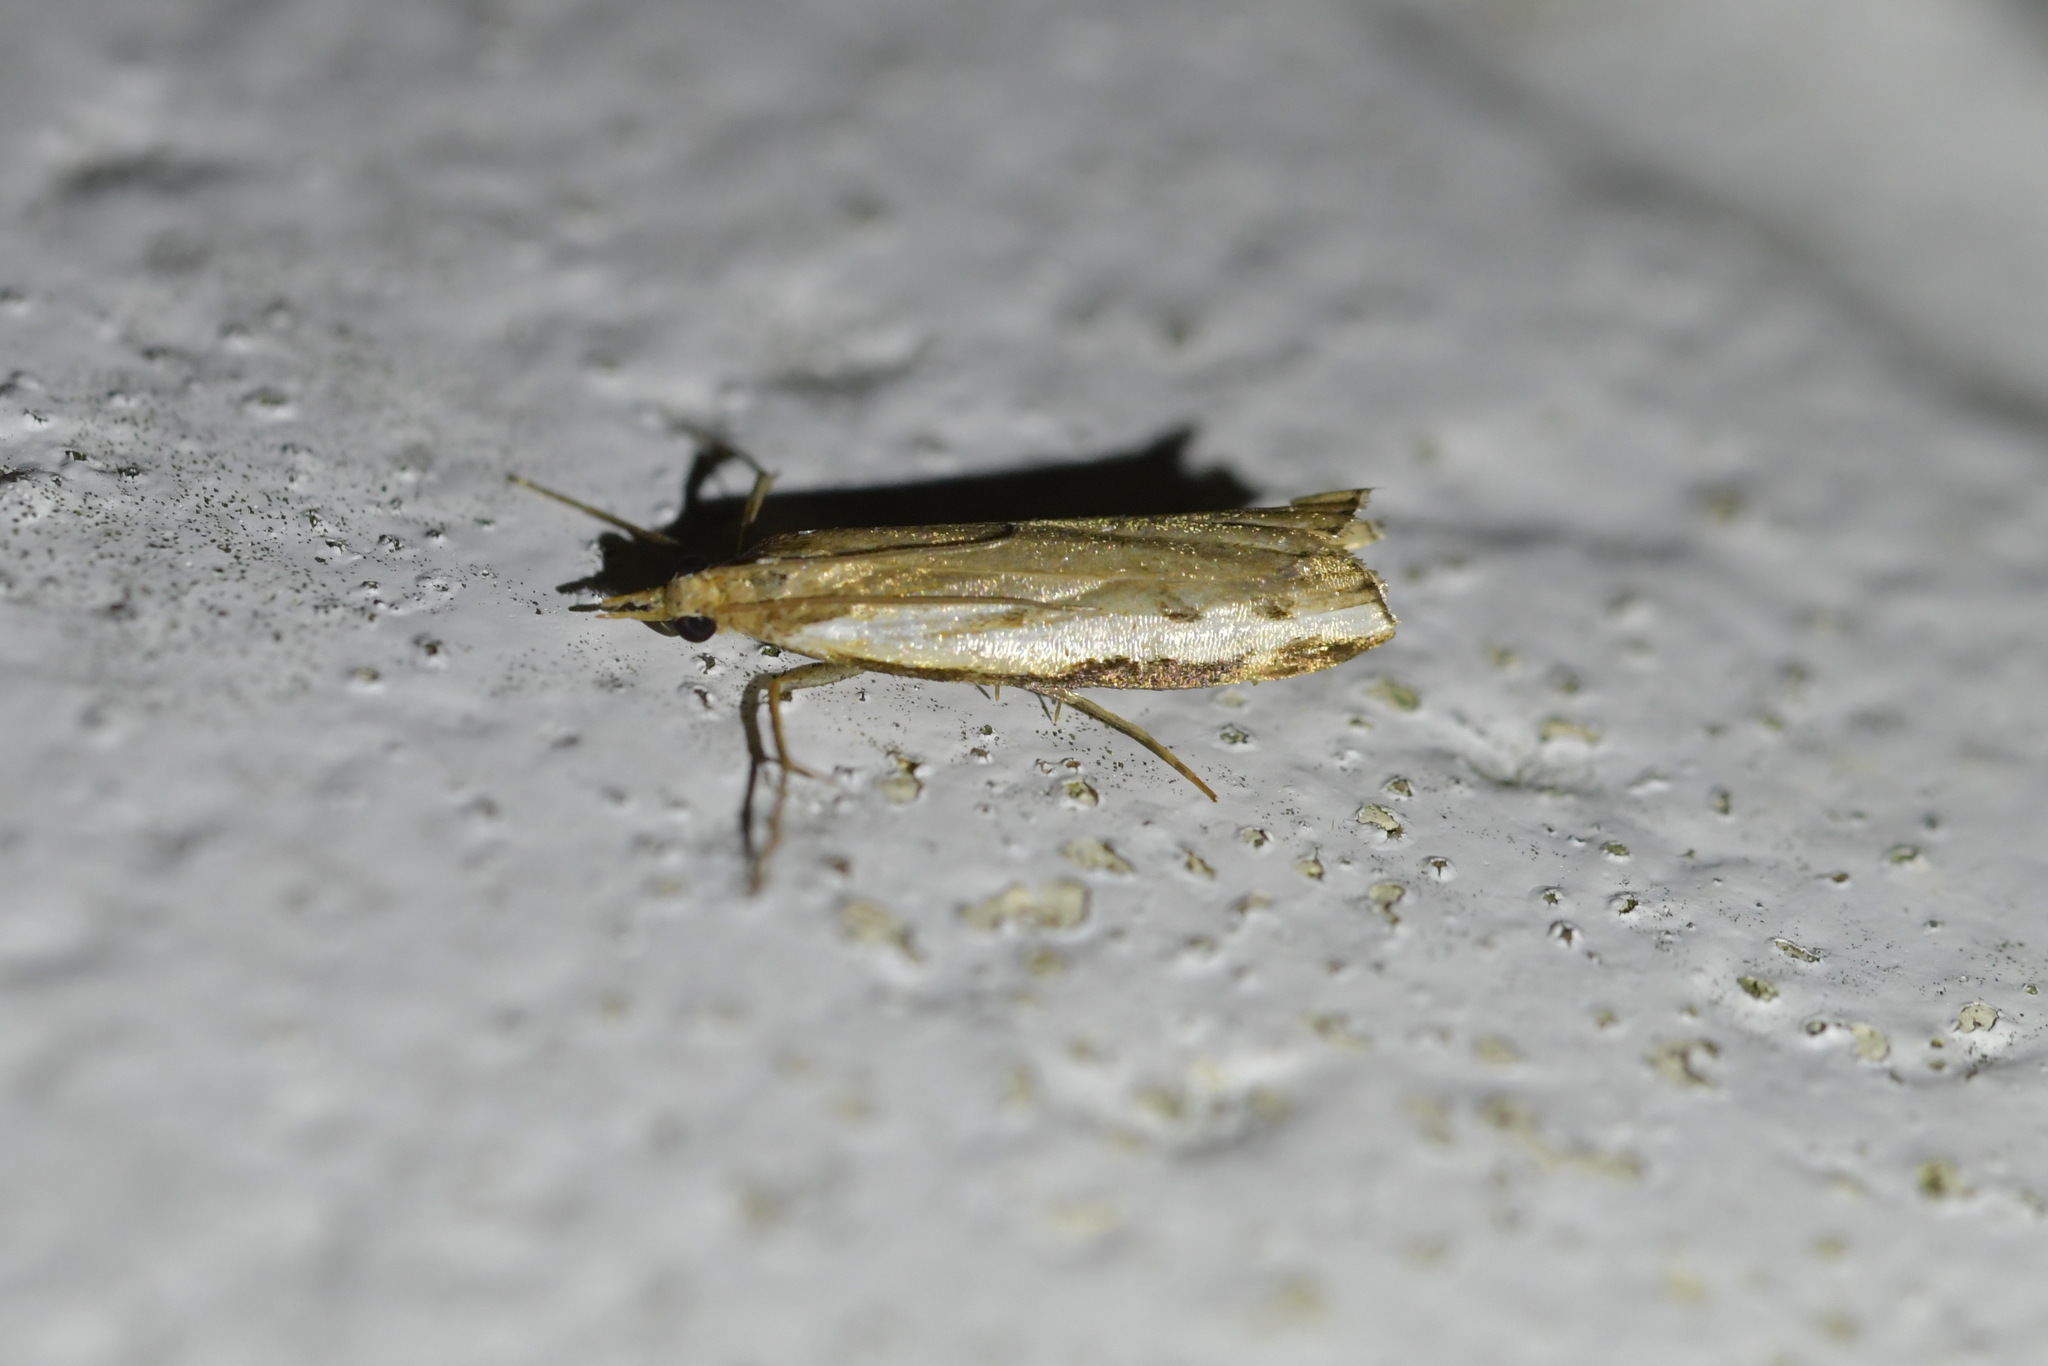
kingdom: Animalia
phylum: Arthropoda
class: Insecta
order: Lepidoptera
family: Crambidae
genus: Orocrambus
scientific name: Orocrambus flexuosellus
